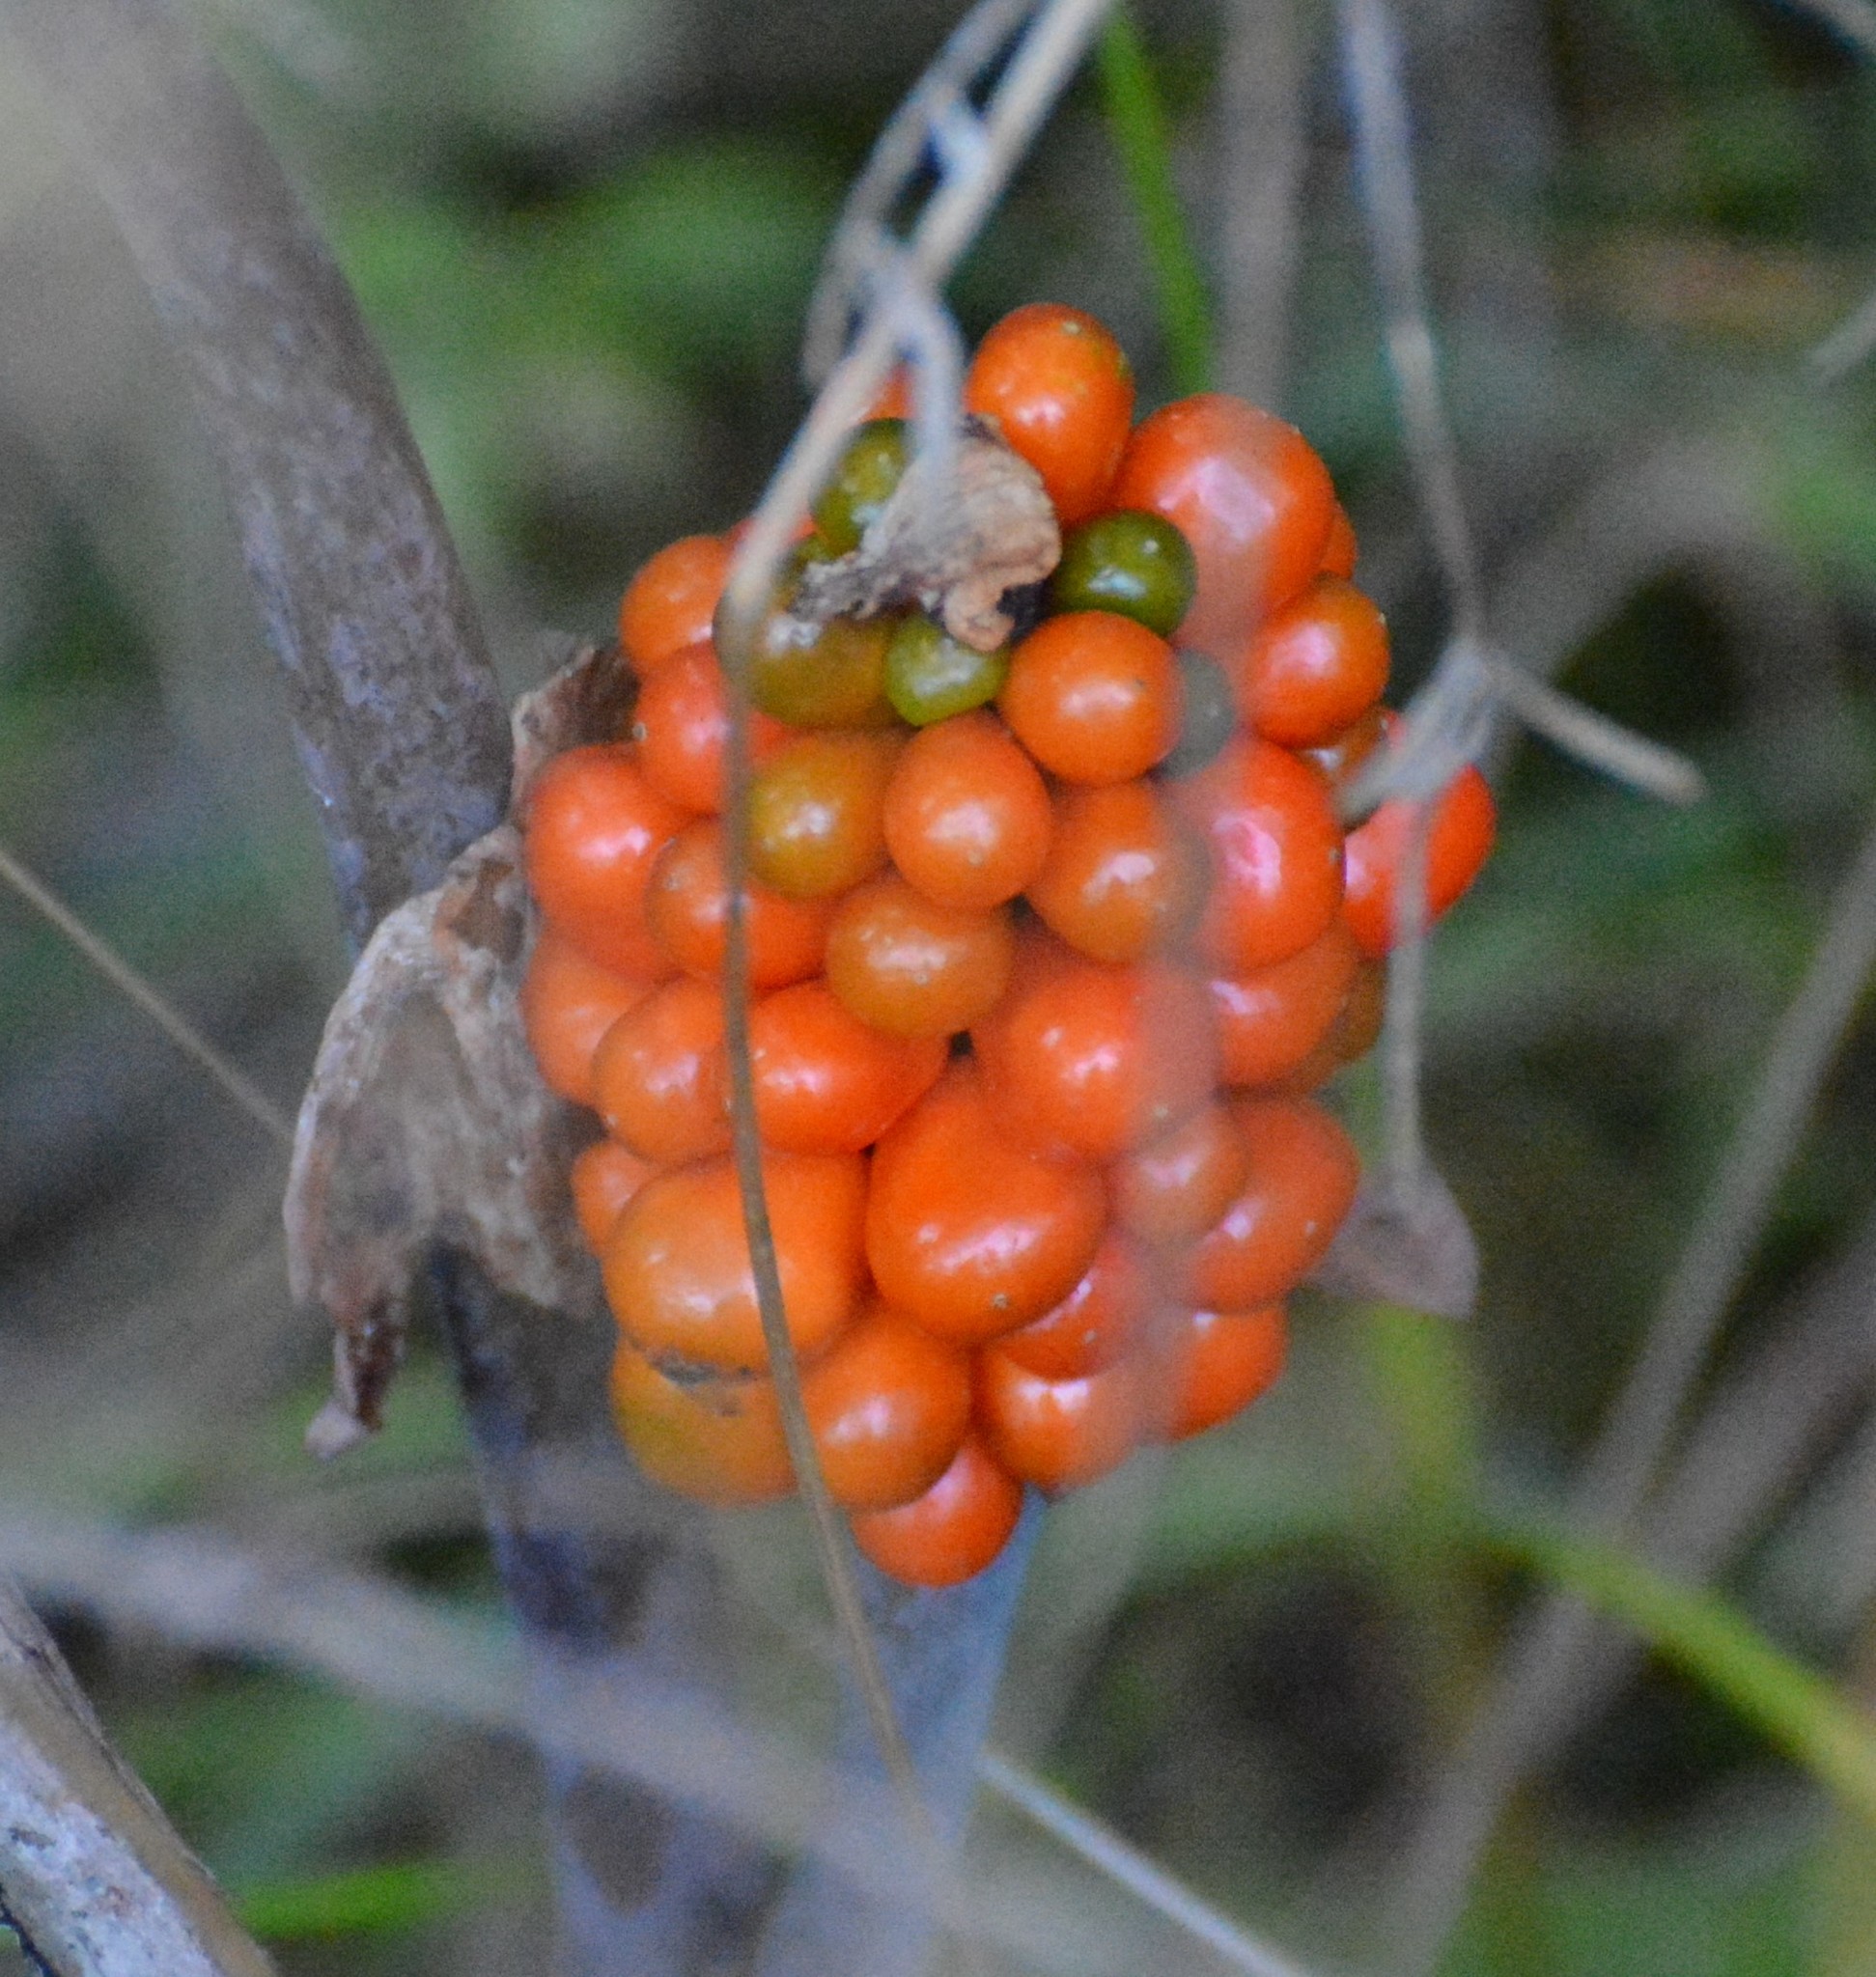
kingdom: Plantae
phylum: Tracheophyta
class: Liliopsida
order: Alismatales
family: Araceae
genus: Arisaema
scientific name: Arisaema triphyllum
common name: Jack-in-the-pulpit
